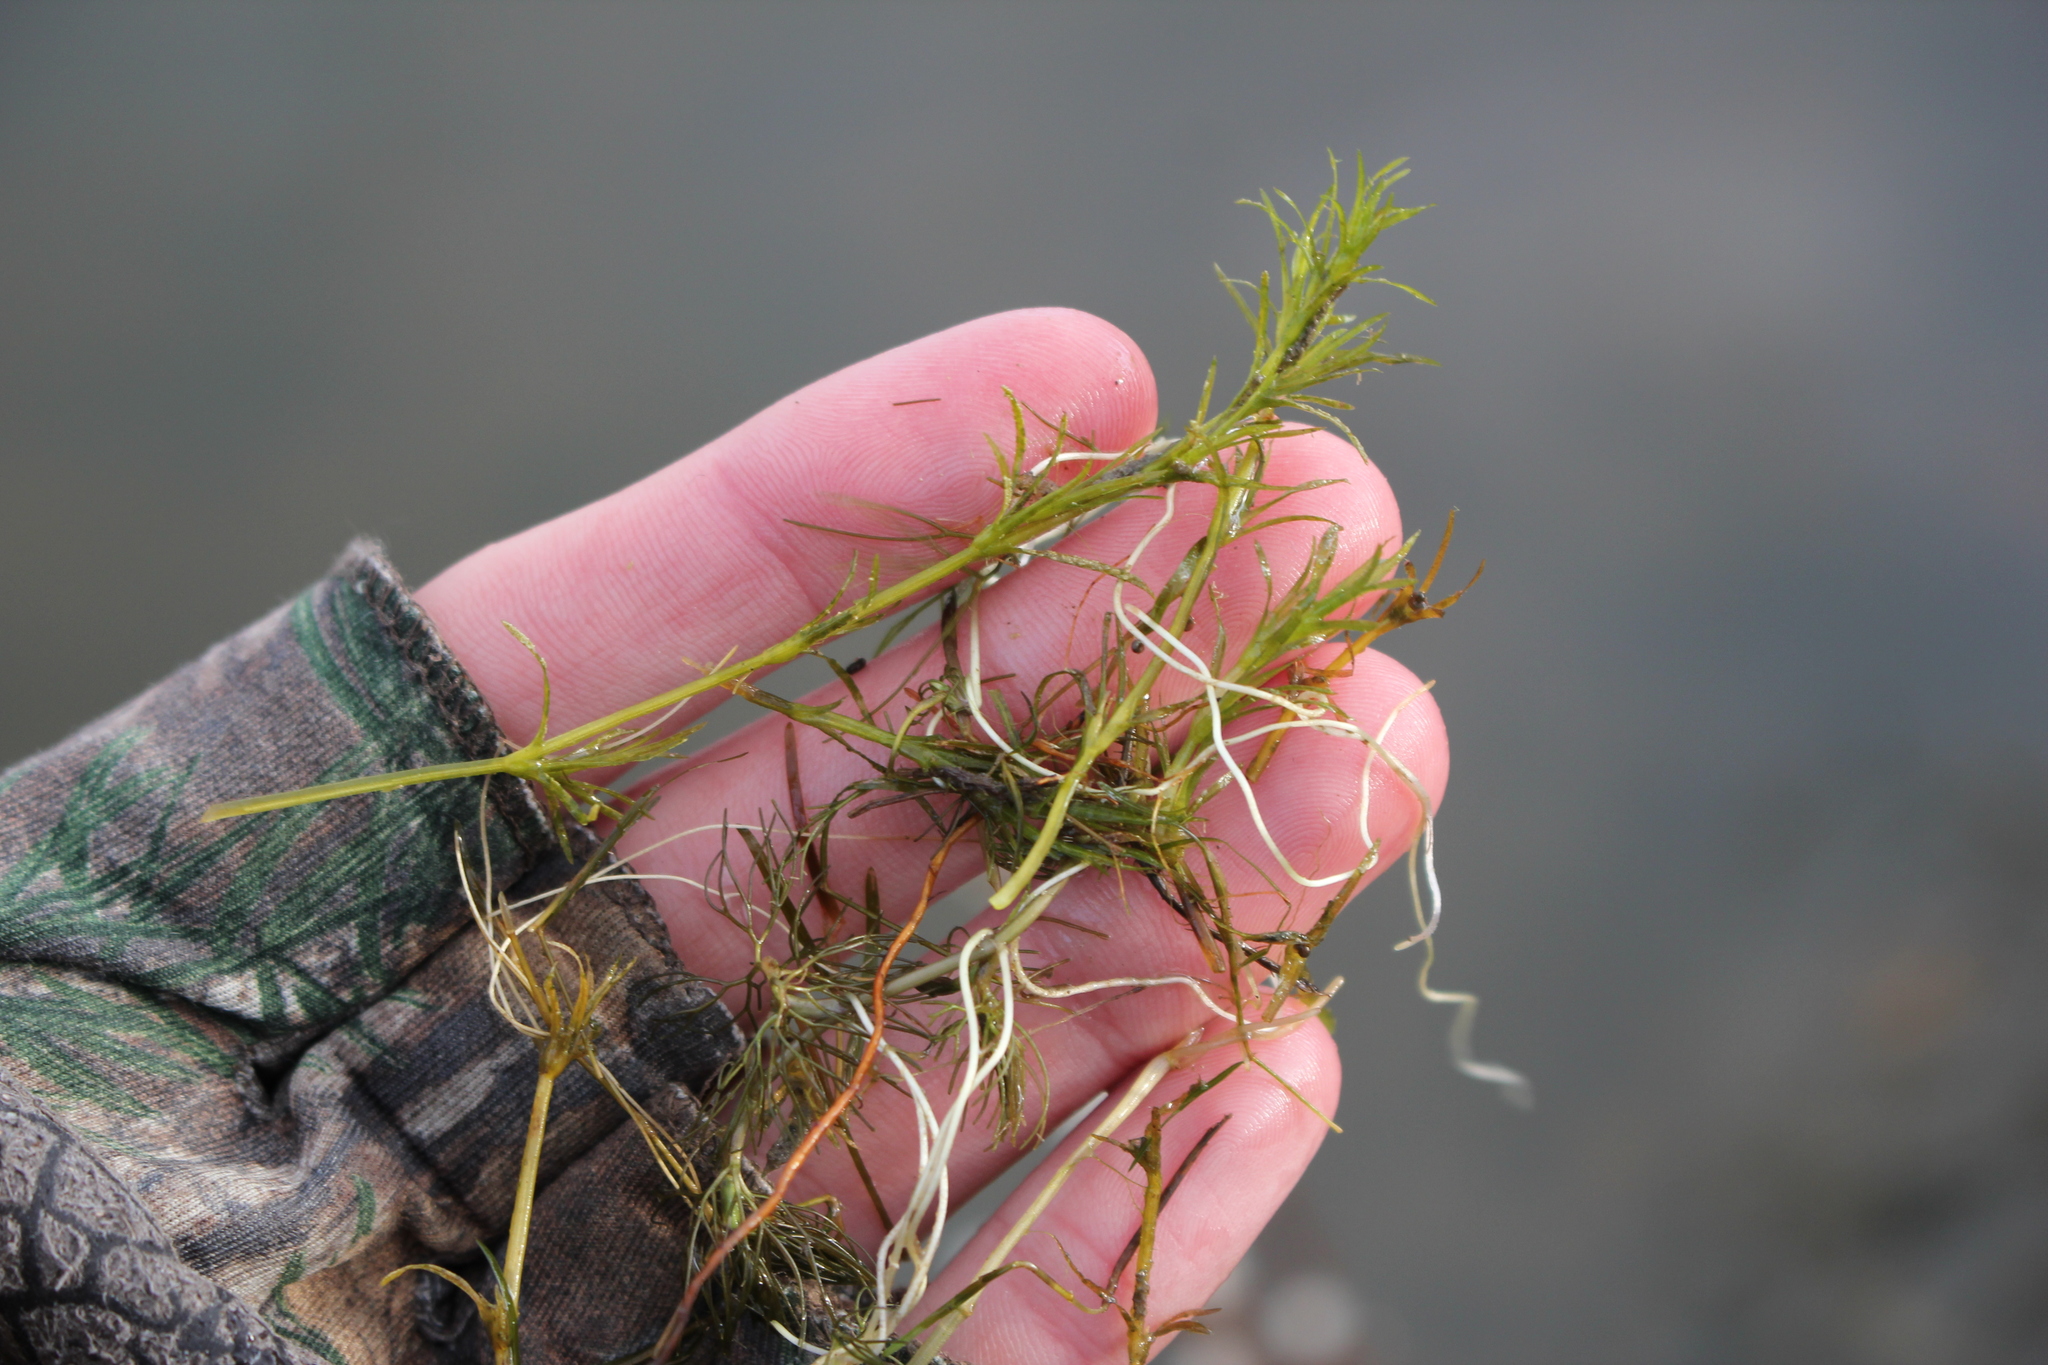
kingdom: Plantae
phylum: Tracheophyta
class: Liliopsida
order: Alismatales
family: Hydrocharitaceae
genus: Najas
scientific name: Najas flexilis
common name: Slender naiad
